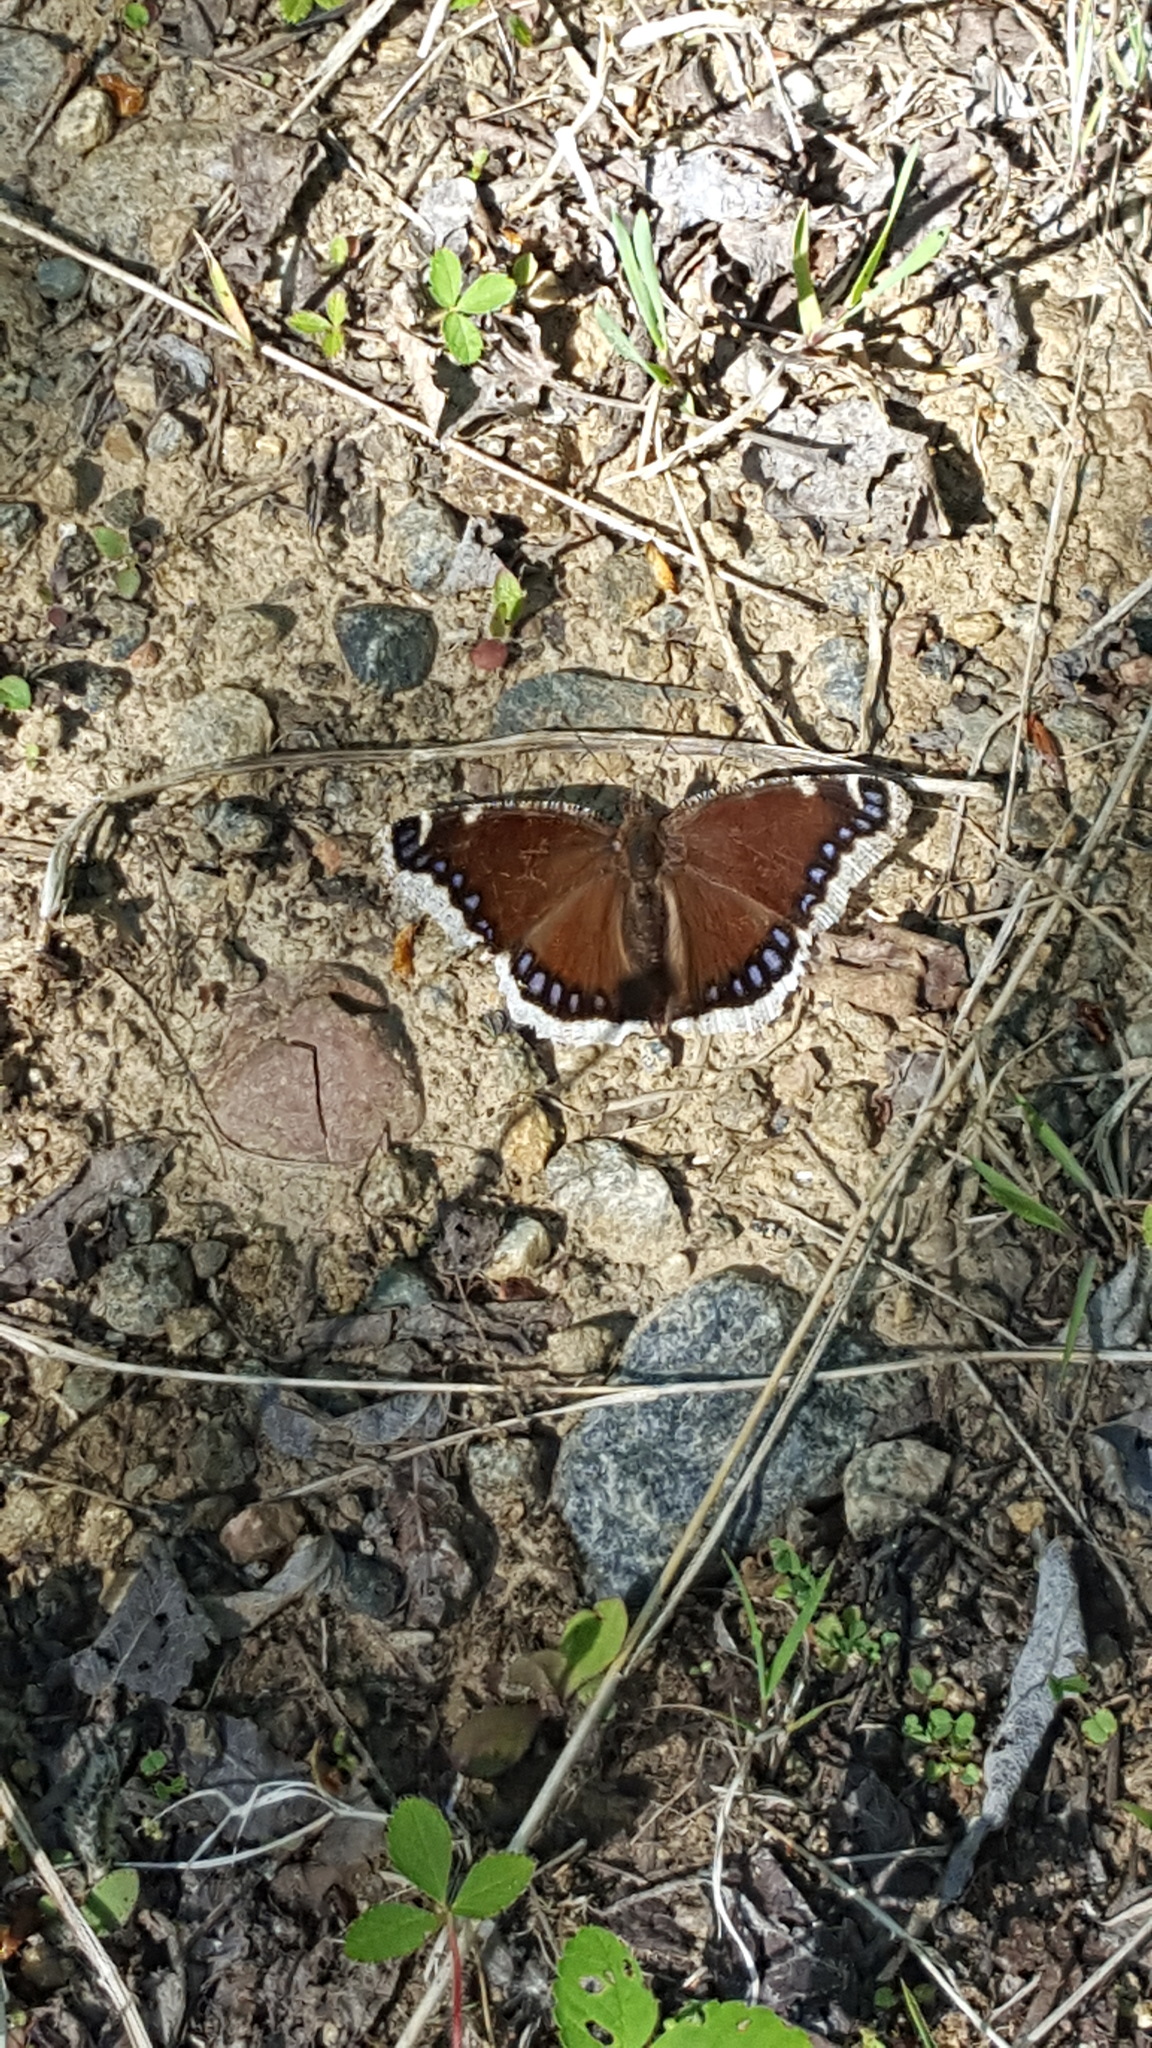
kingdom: Animalia
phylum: Arthropoda
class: Insecta
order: Lepidoptera
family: Nymphalidae
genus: Nymphalis
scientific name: Nymphalis antiopa
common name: Camberwell beauty
